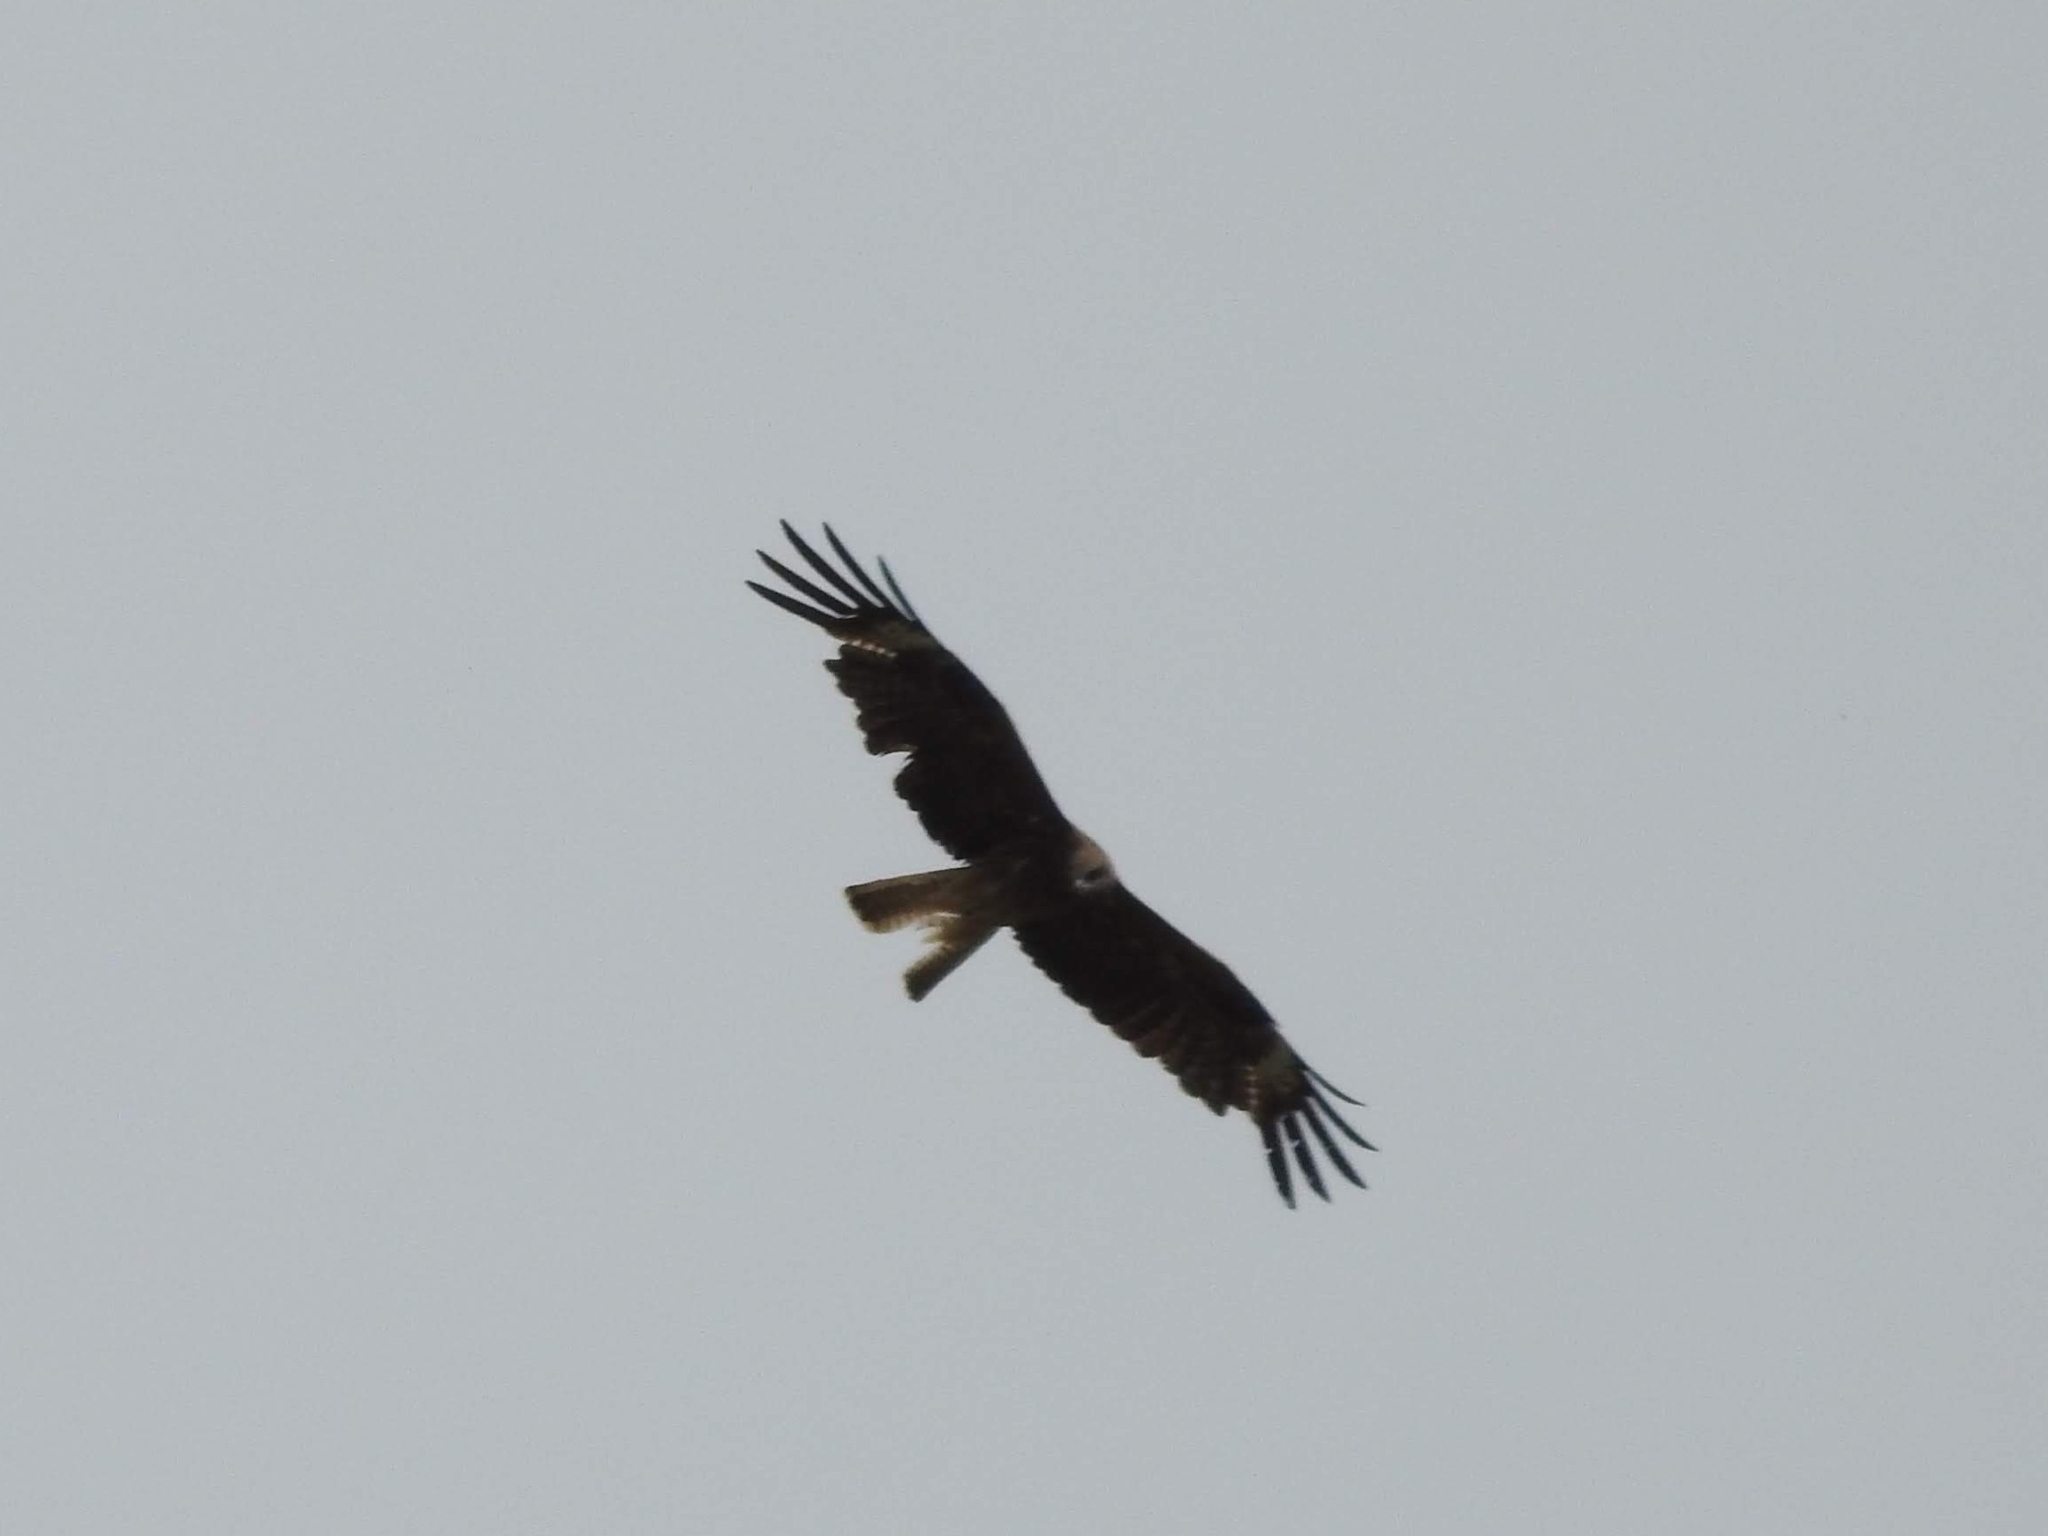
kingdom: Animalia
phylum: Chordata
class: Aves
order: Accipitriformes
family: Accipitridae
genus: Milvus
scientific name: Milvus migrans
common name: Black kite
